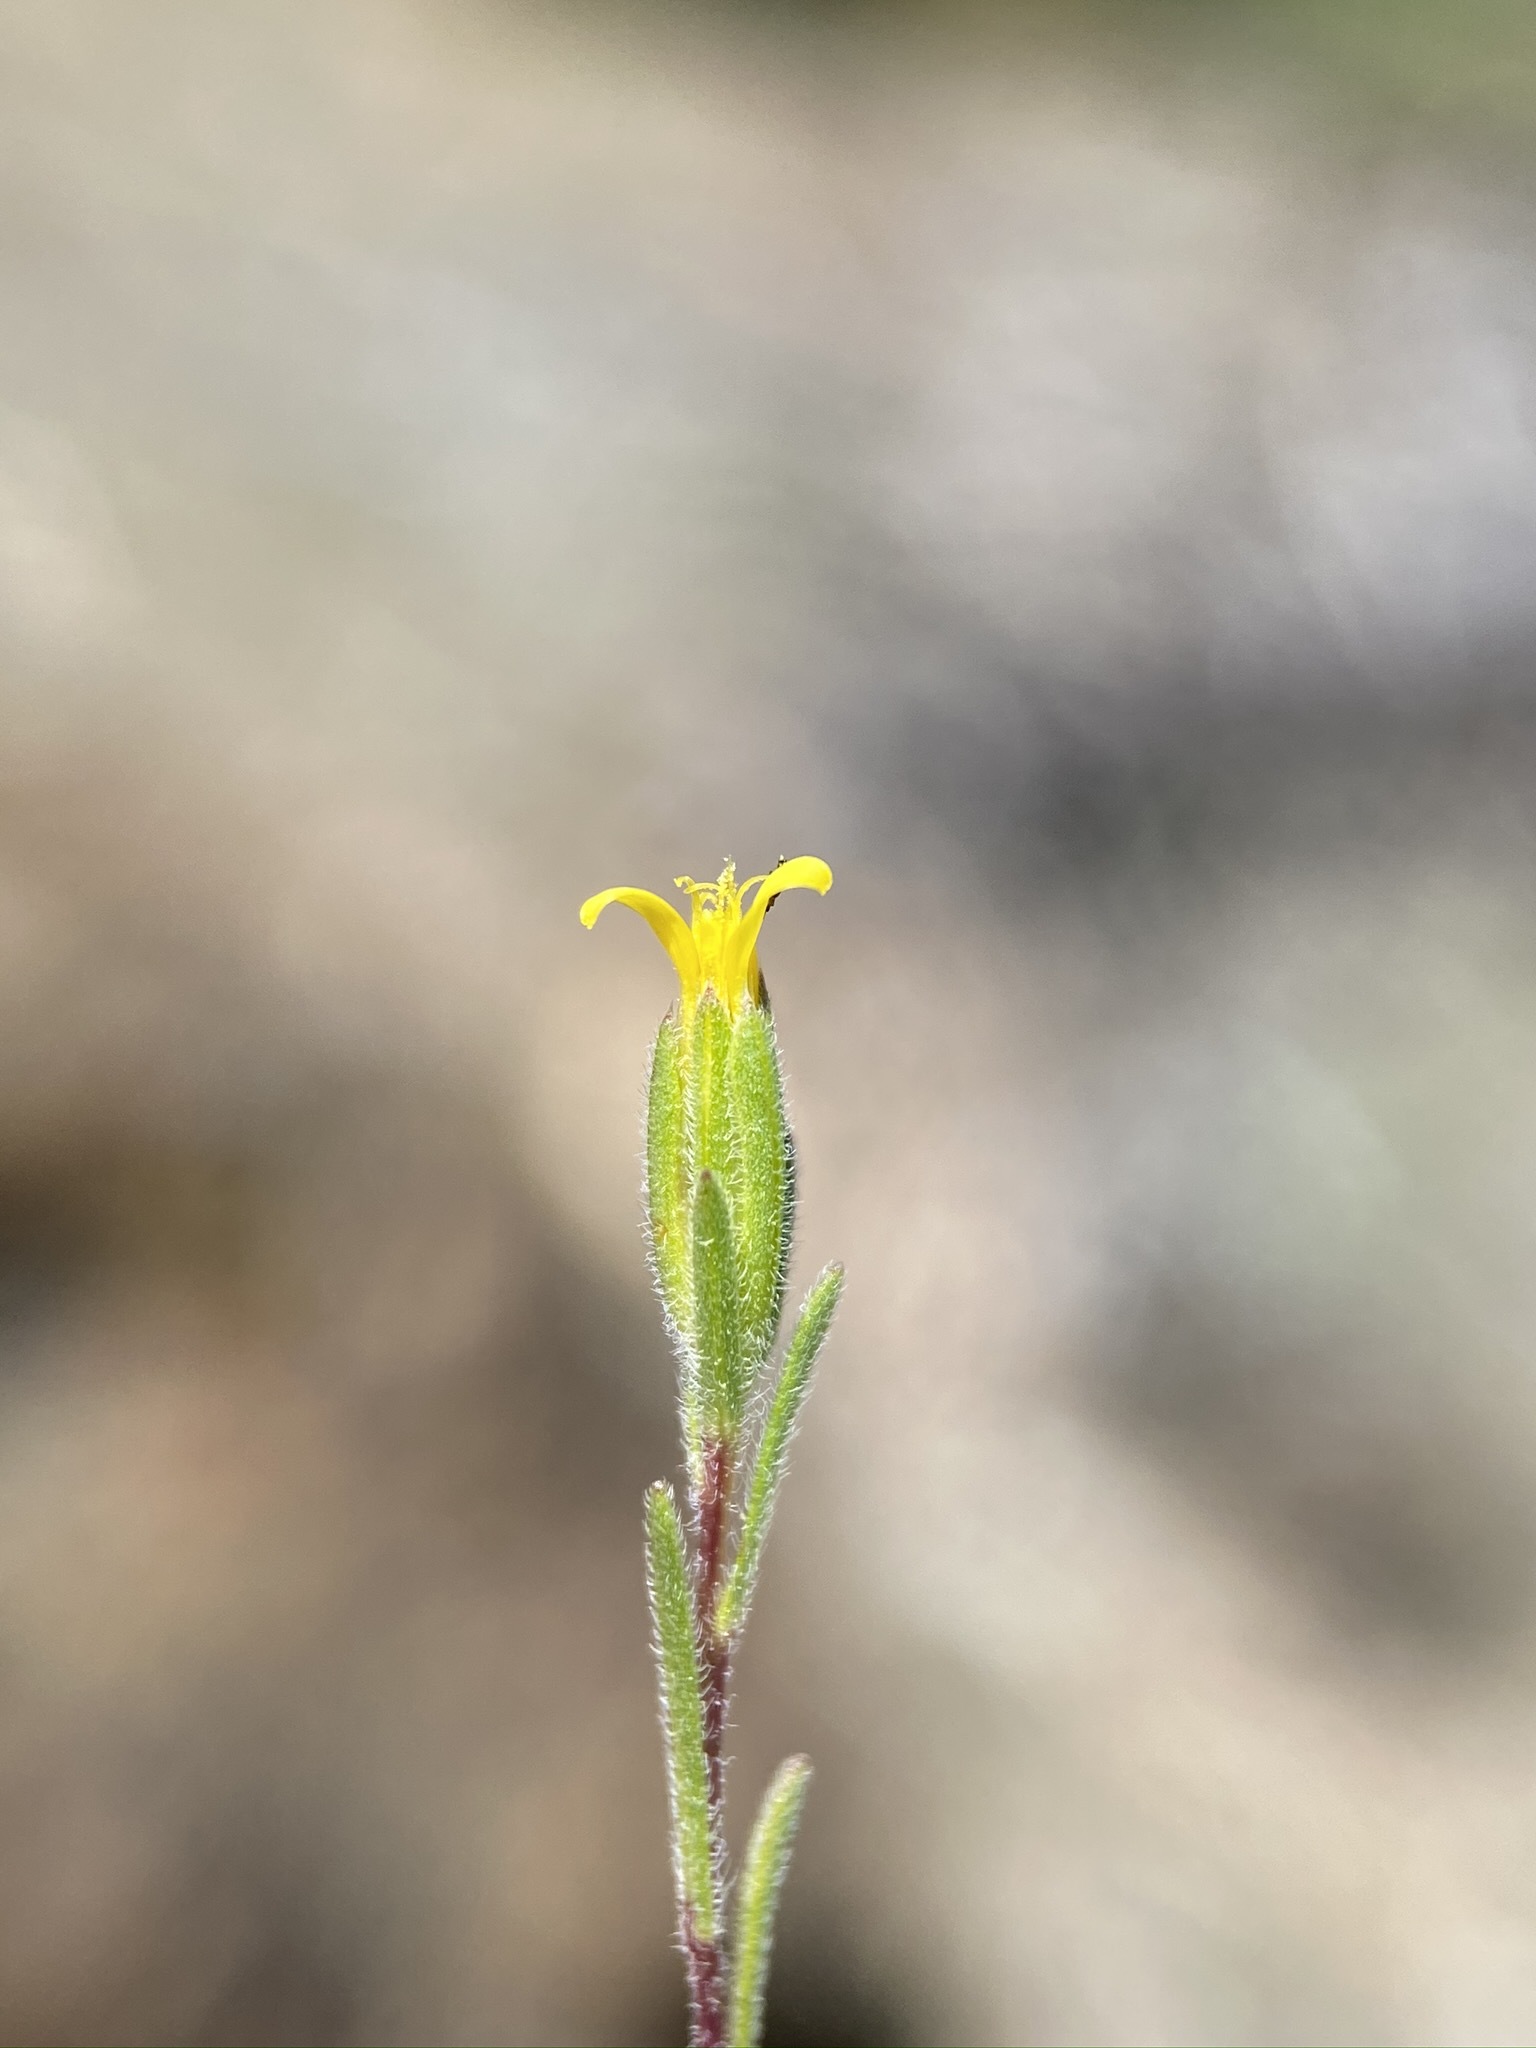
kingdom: Plantae
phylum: Tracheophyta
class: Magnoliopsida
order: Asterales
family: Asteraceae
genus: Rigiopappus
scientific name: Rigiopappus leptocladus
